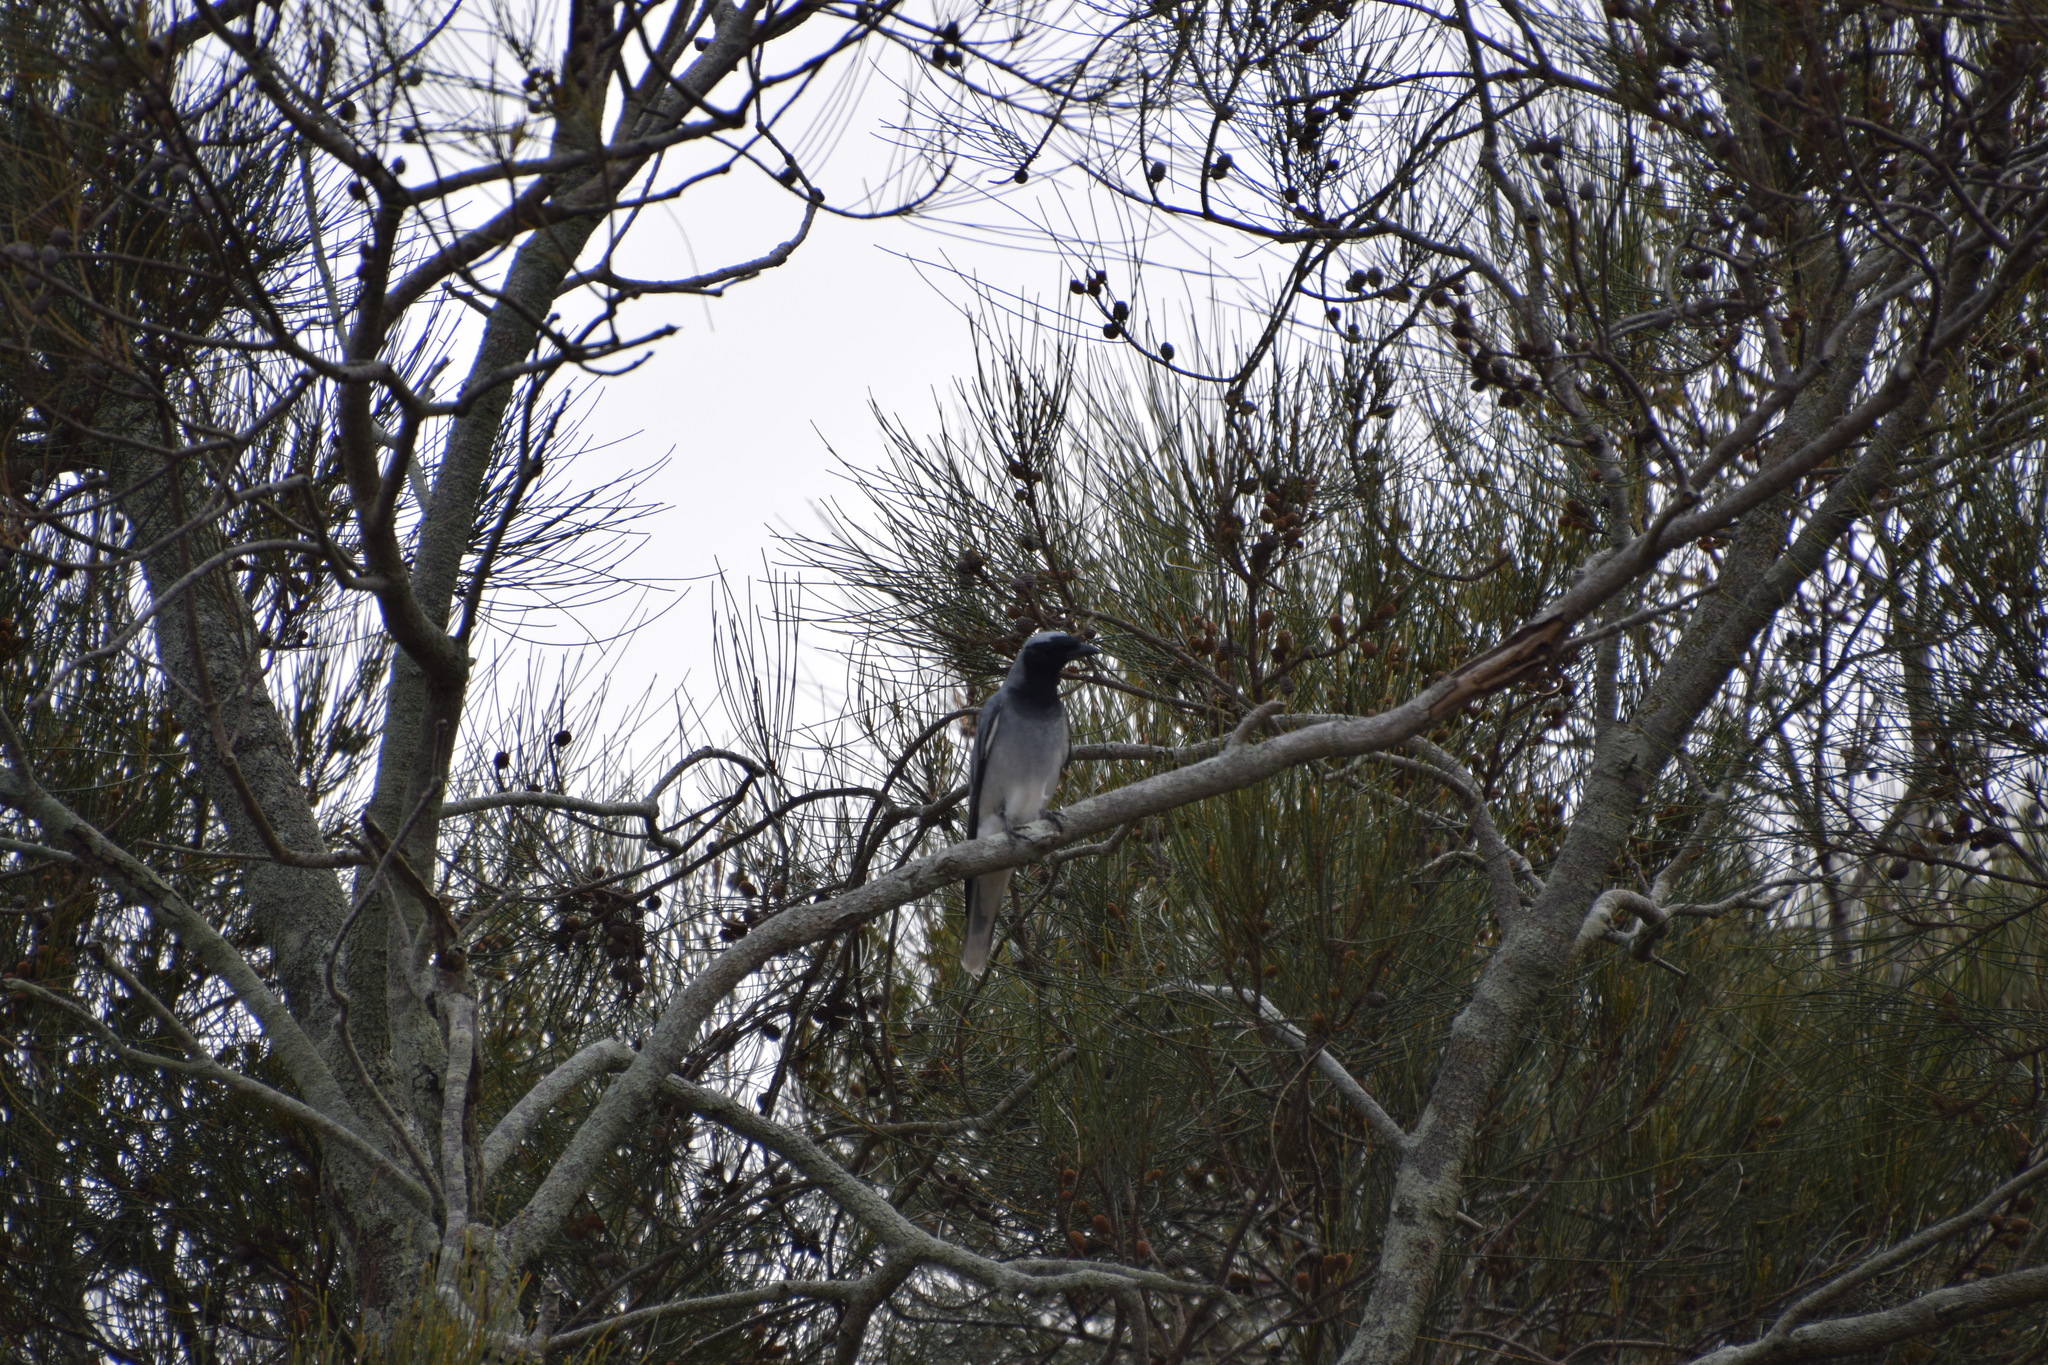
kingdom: Animalia
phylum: Chordata
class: Aves
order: Passeriformes
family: Campephagidae
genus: Coracina
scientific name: Coracina novaehollandiae
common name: Black-faced cuckooshrike
